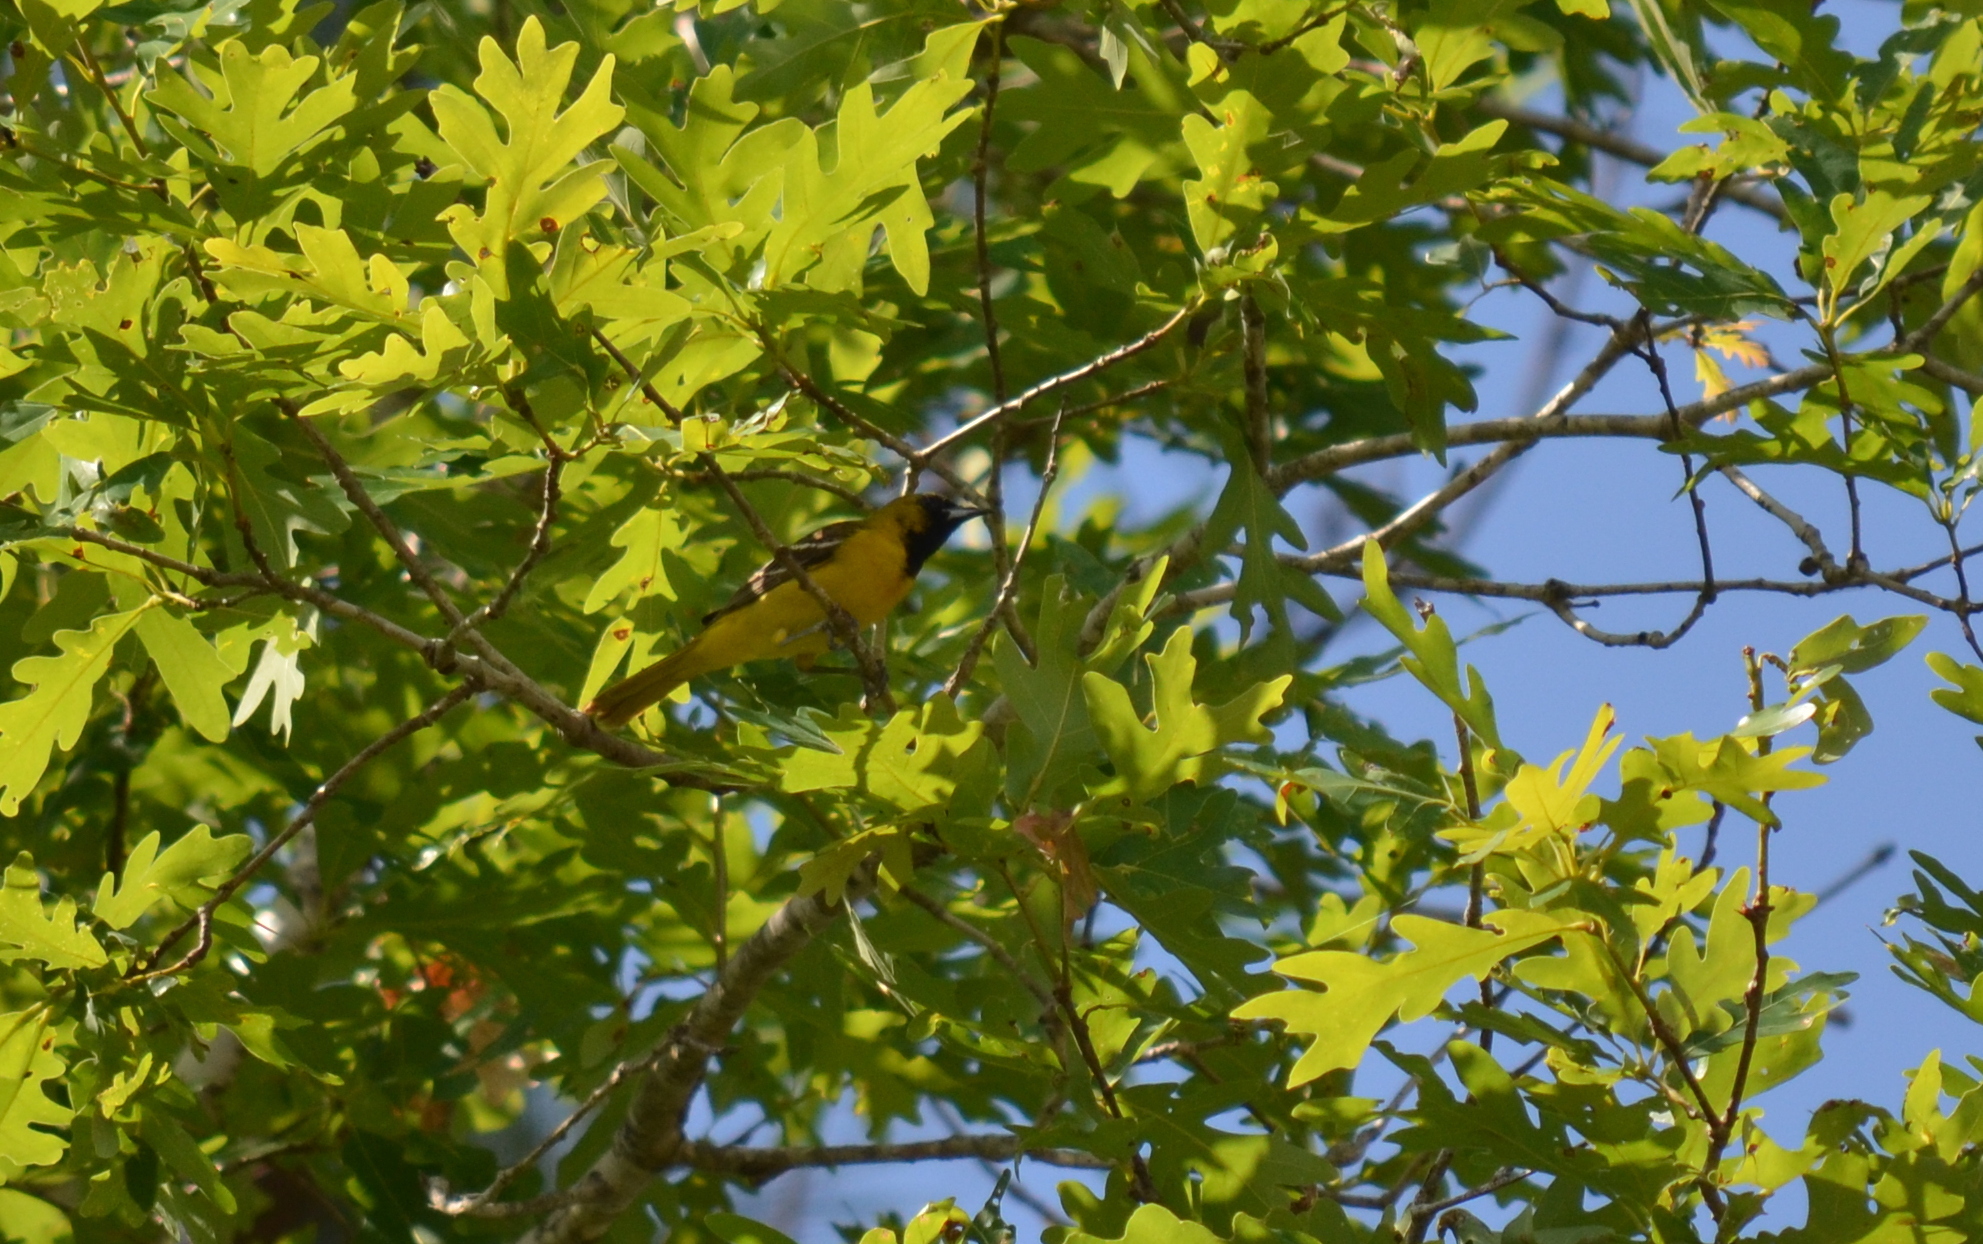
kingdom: Animalia
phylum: Chordata
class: Aves
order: Passeriformes
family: Icteridae
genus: Icterus
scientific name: Icterus spurius
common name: Orchard oriole
